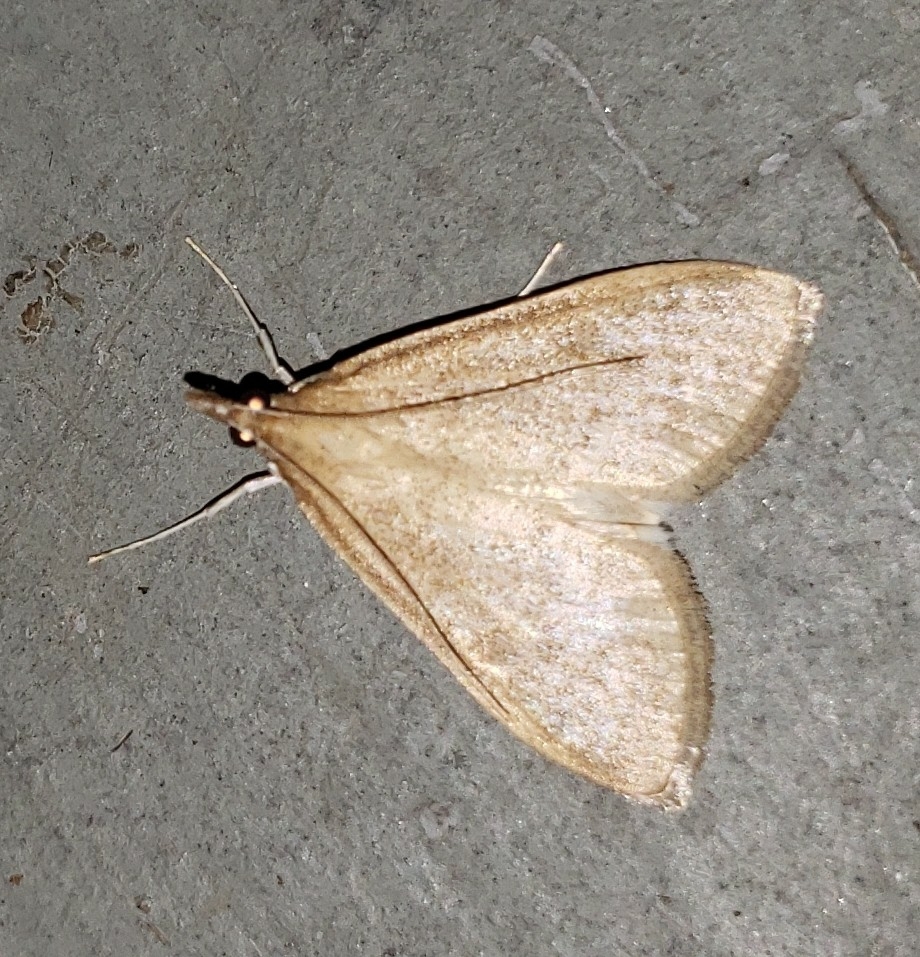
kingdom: Animalia
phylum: Arthropoda
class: Insecta
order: Lepidoptera
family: Crambidae
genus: Saucrobotys
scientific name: Saucrobotys futilalis
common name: Dogbane saucrobotys moth
